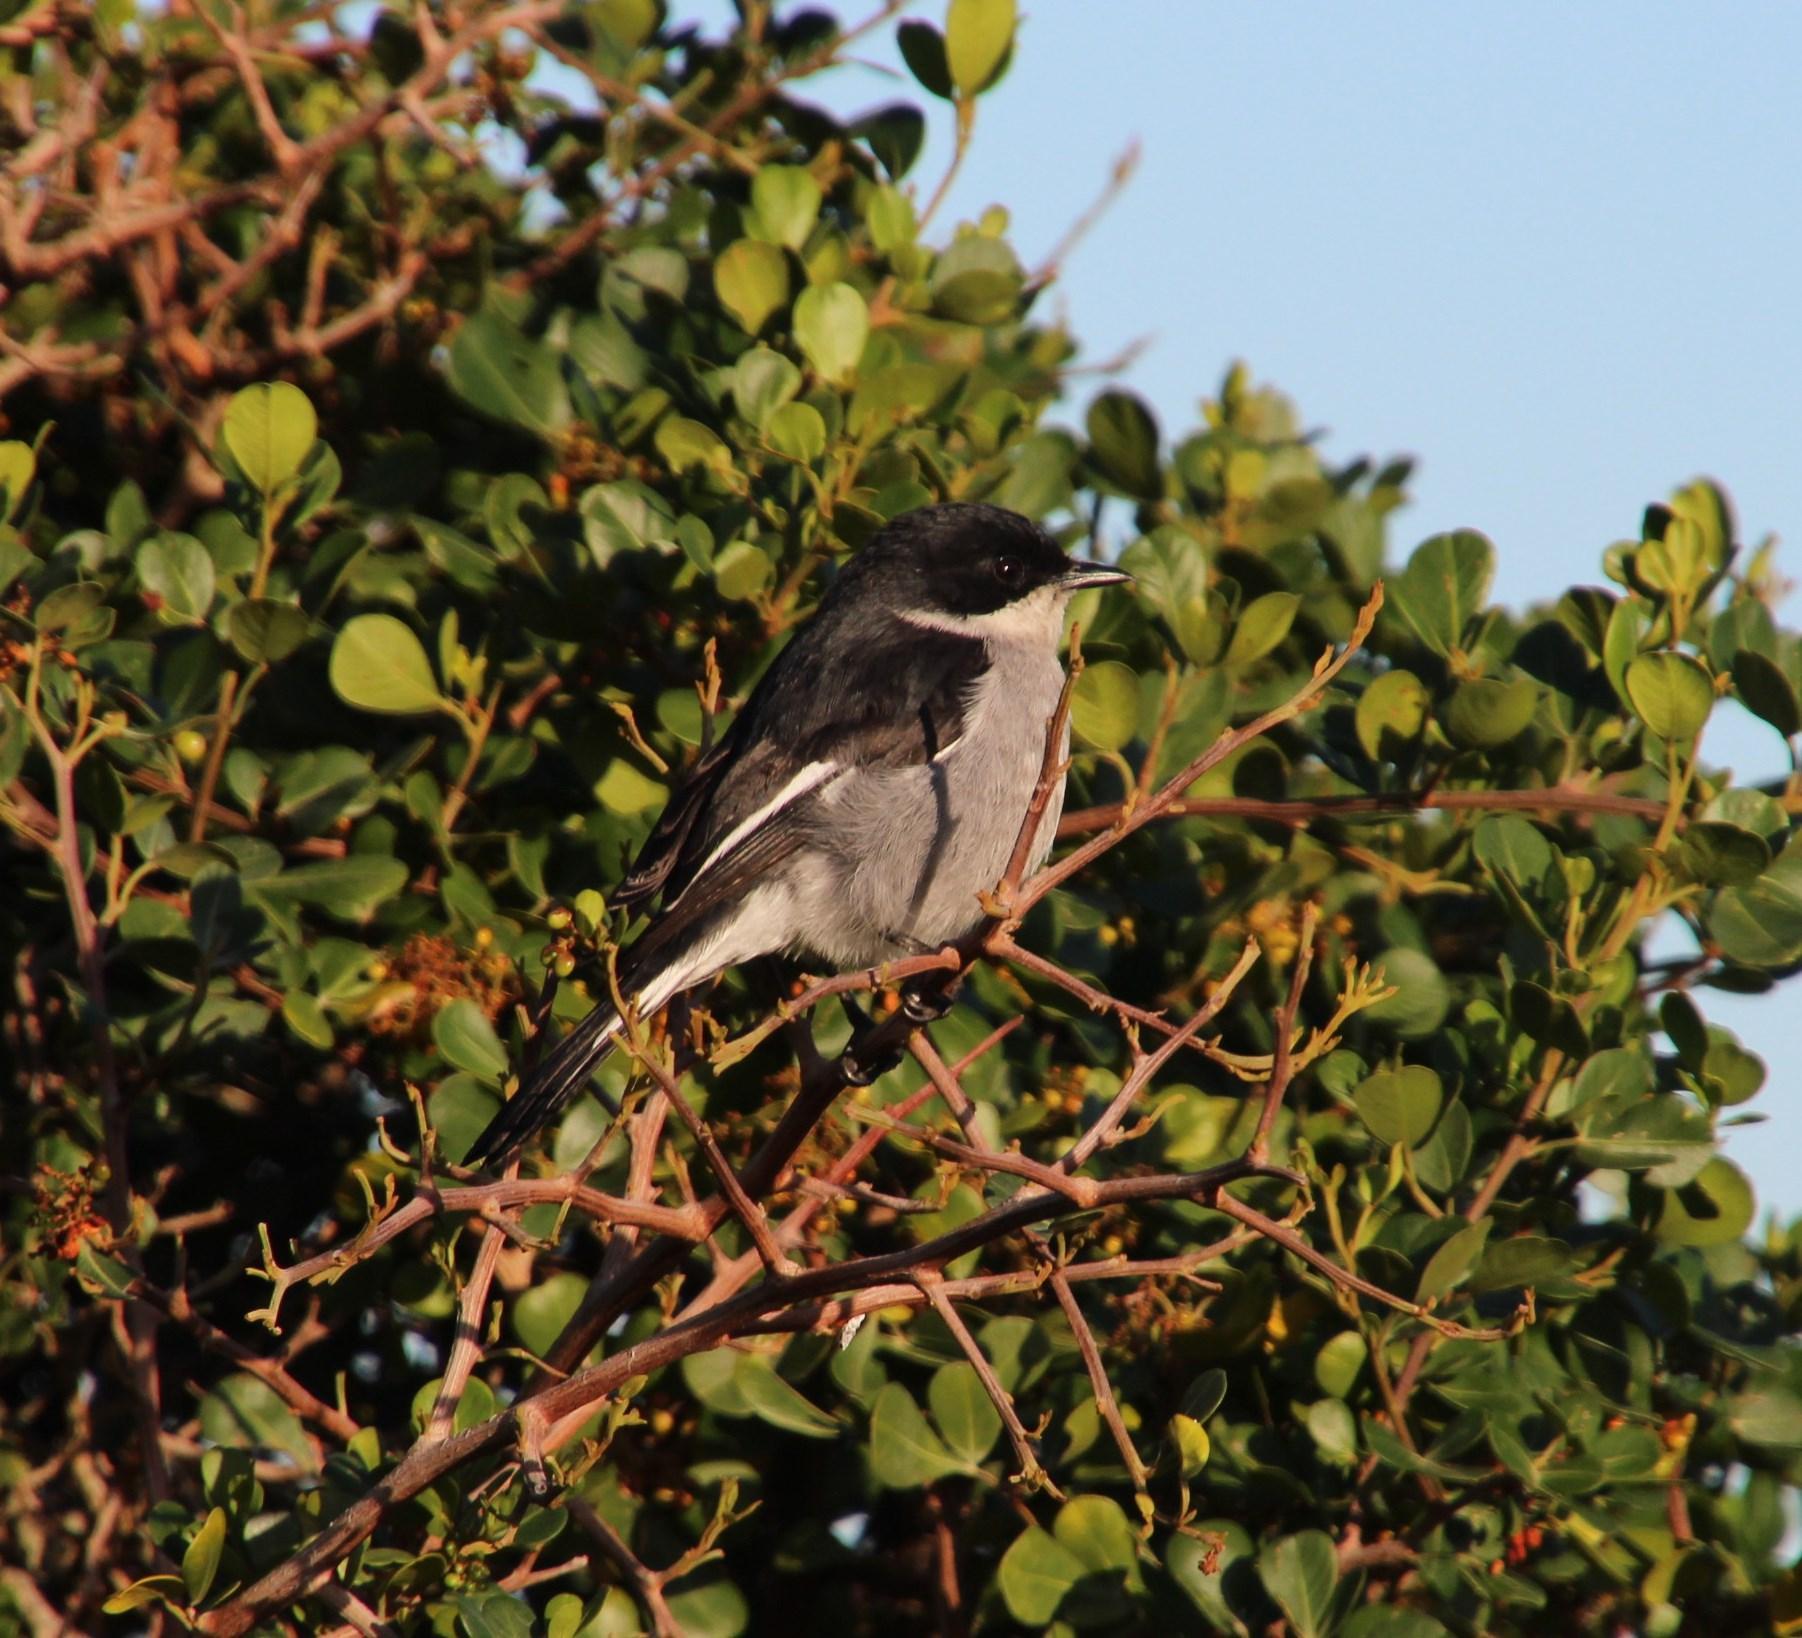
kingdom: Animalia
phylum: Chordata
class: Aves
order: Passeriformes
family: Muscicapidae
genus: Sigelus
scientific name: Sigelus silens
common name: Fiscal flycatcher
